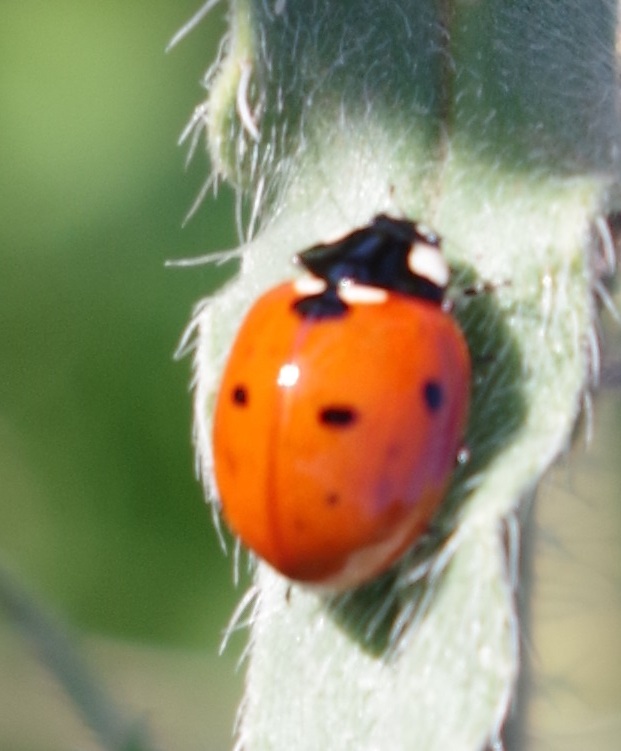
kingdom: Animalia
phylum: Arthropoda
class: Insecta
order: Coleoptera
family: Coccinellidae
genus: Coccinella
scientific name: Coccinella septempunctata
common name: Sevenspotted lady beetle
